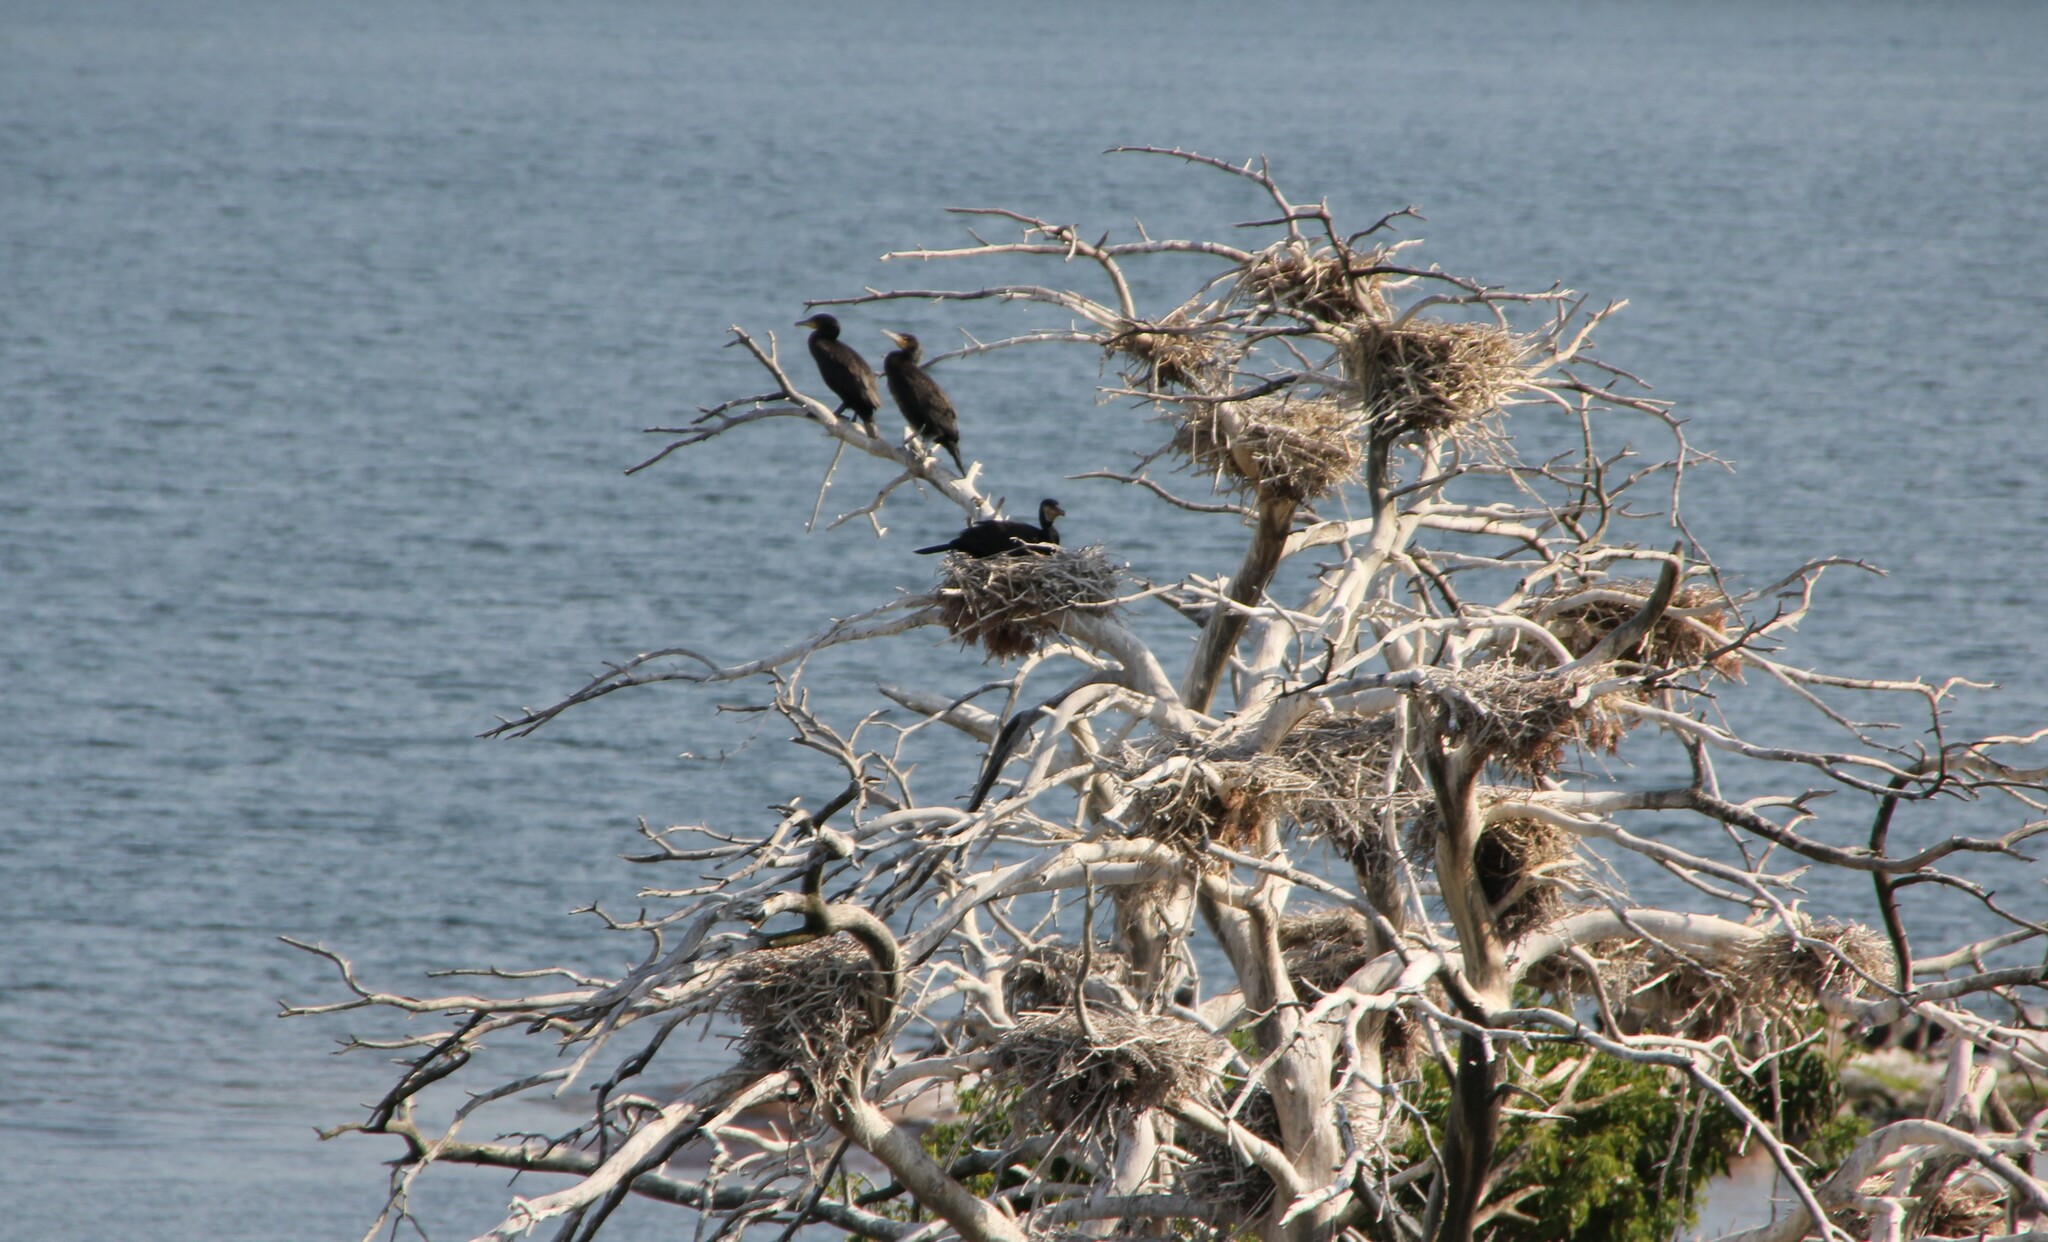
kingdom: Animalia
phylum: Chordata
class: Aves
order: Suliformes
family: Phalacrocoracidae
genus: Phalacrocorax
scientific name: Phalacrocorax carbo
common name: Great cormorant
